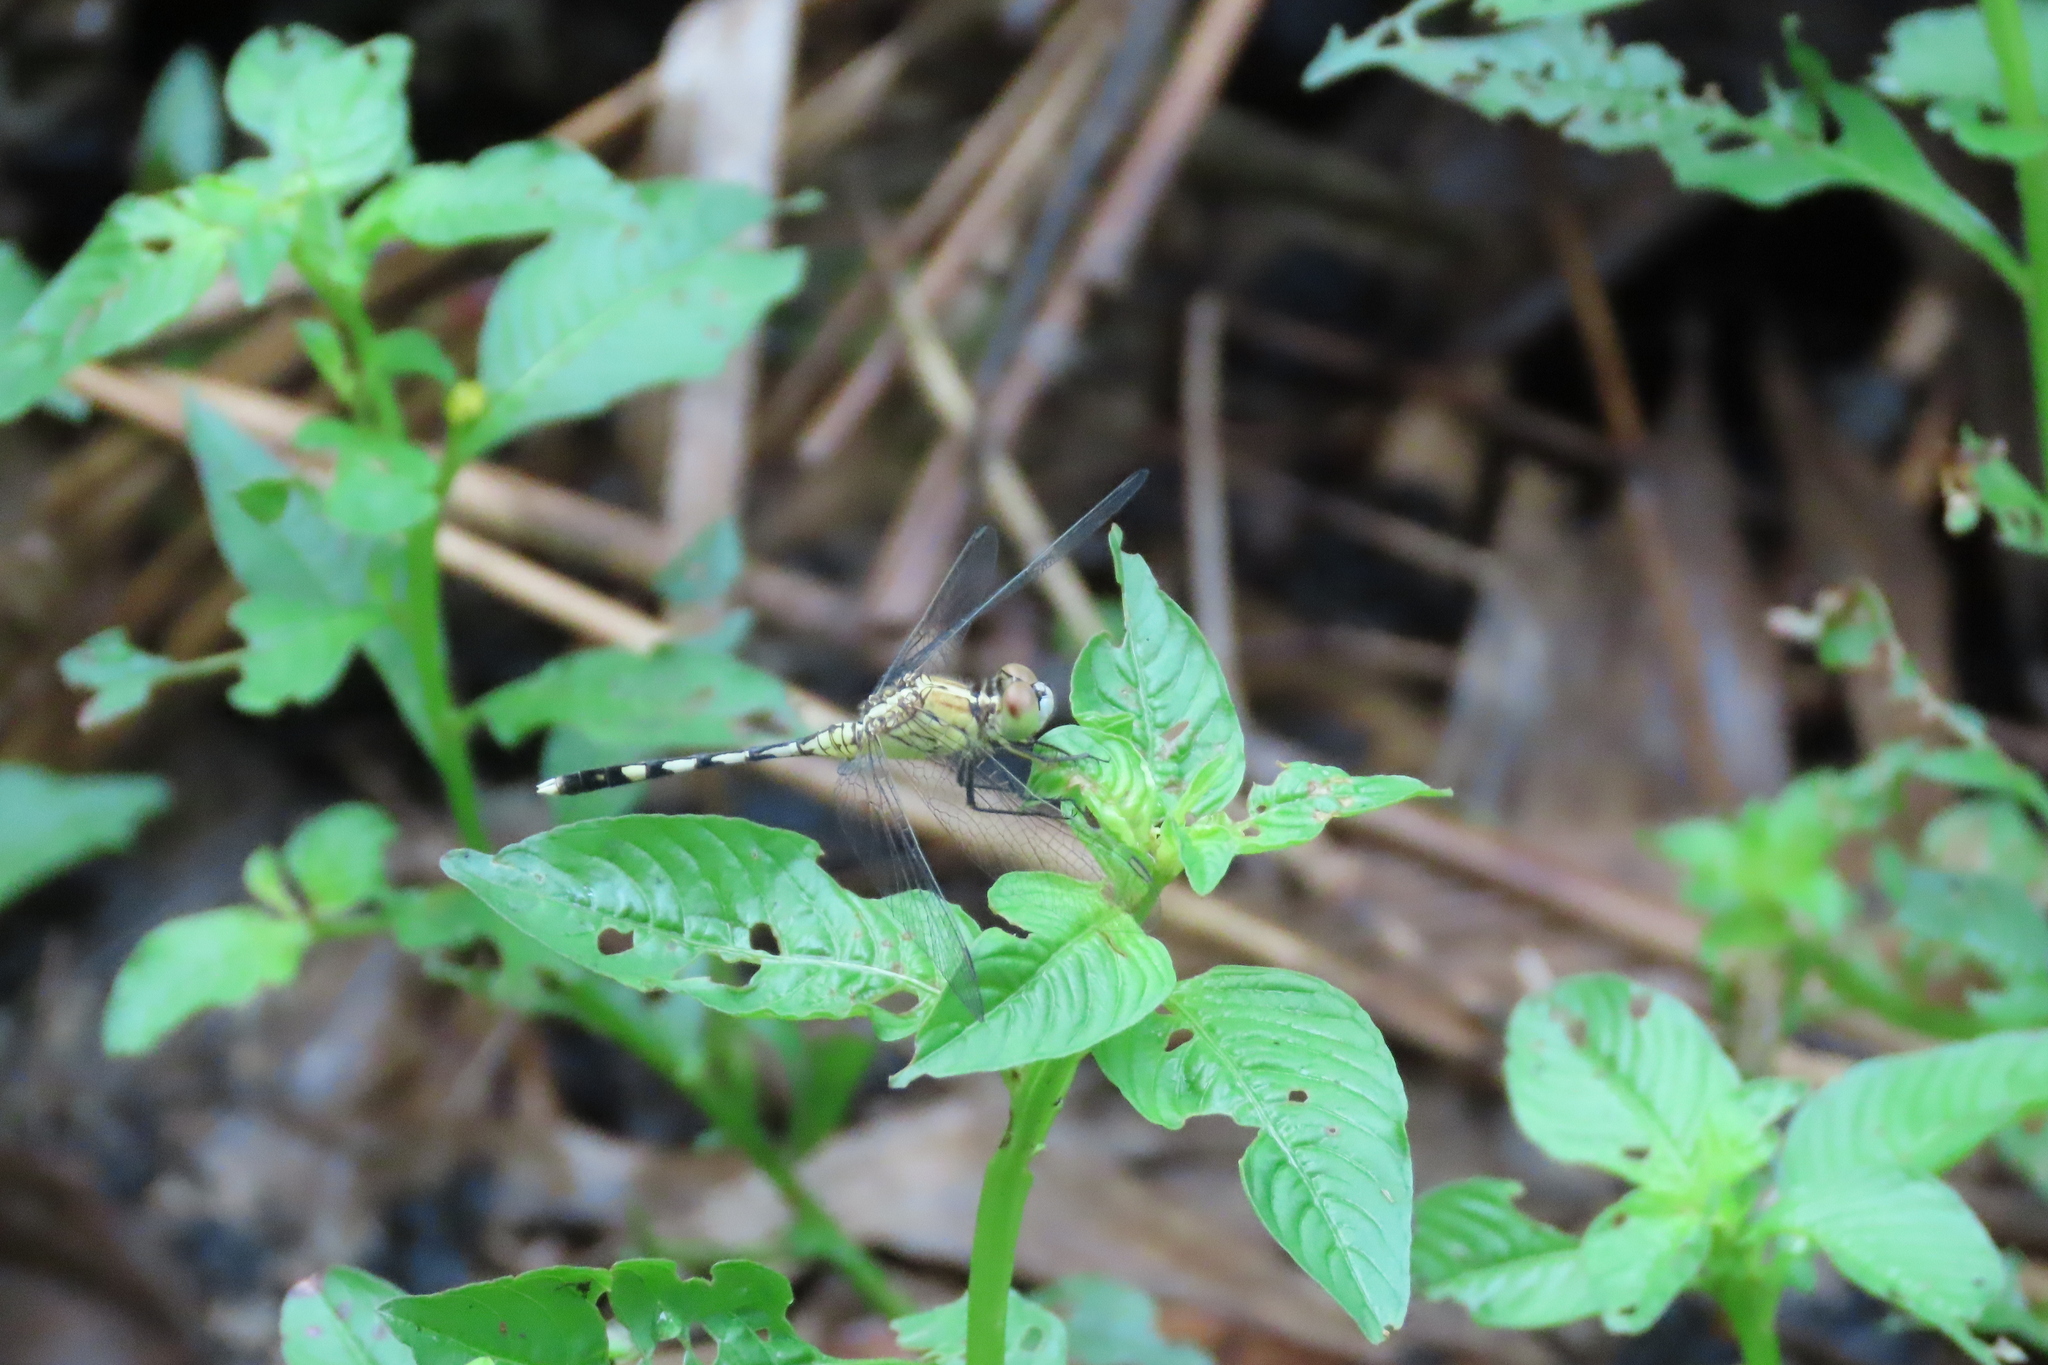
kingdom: Animalia
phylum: Arthropoda
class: Insecta
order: Odonata
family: Libellulidae
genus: Diplacodes
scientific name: Diplacodes trivialis
